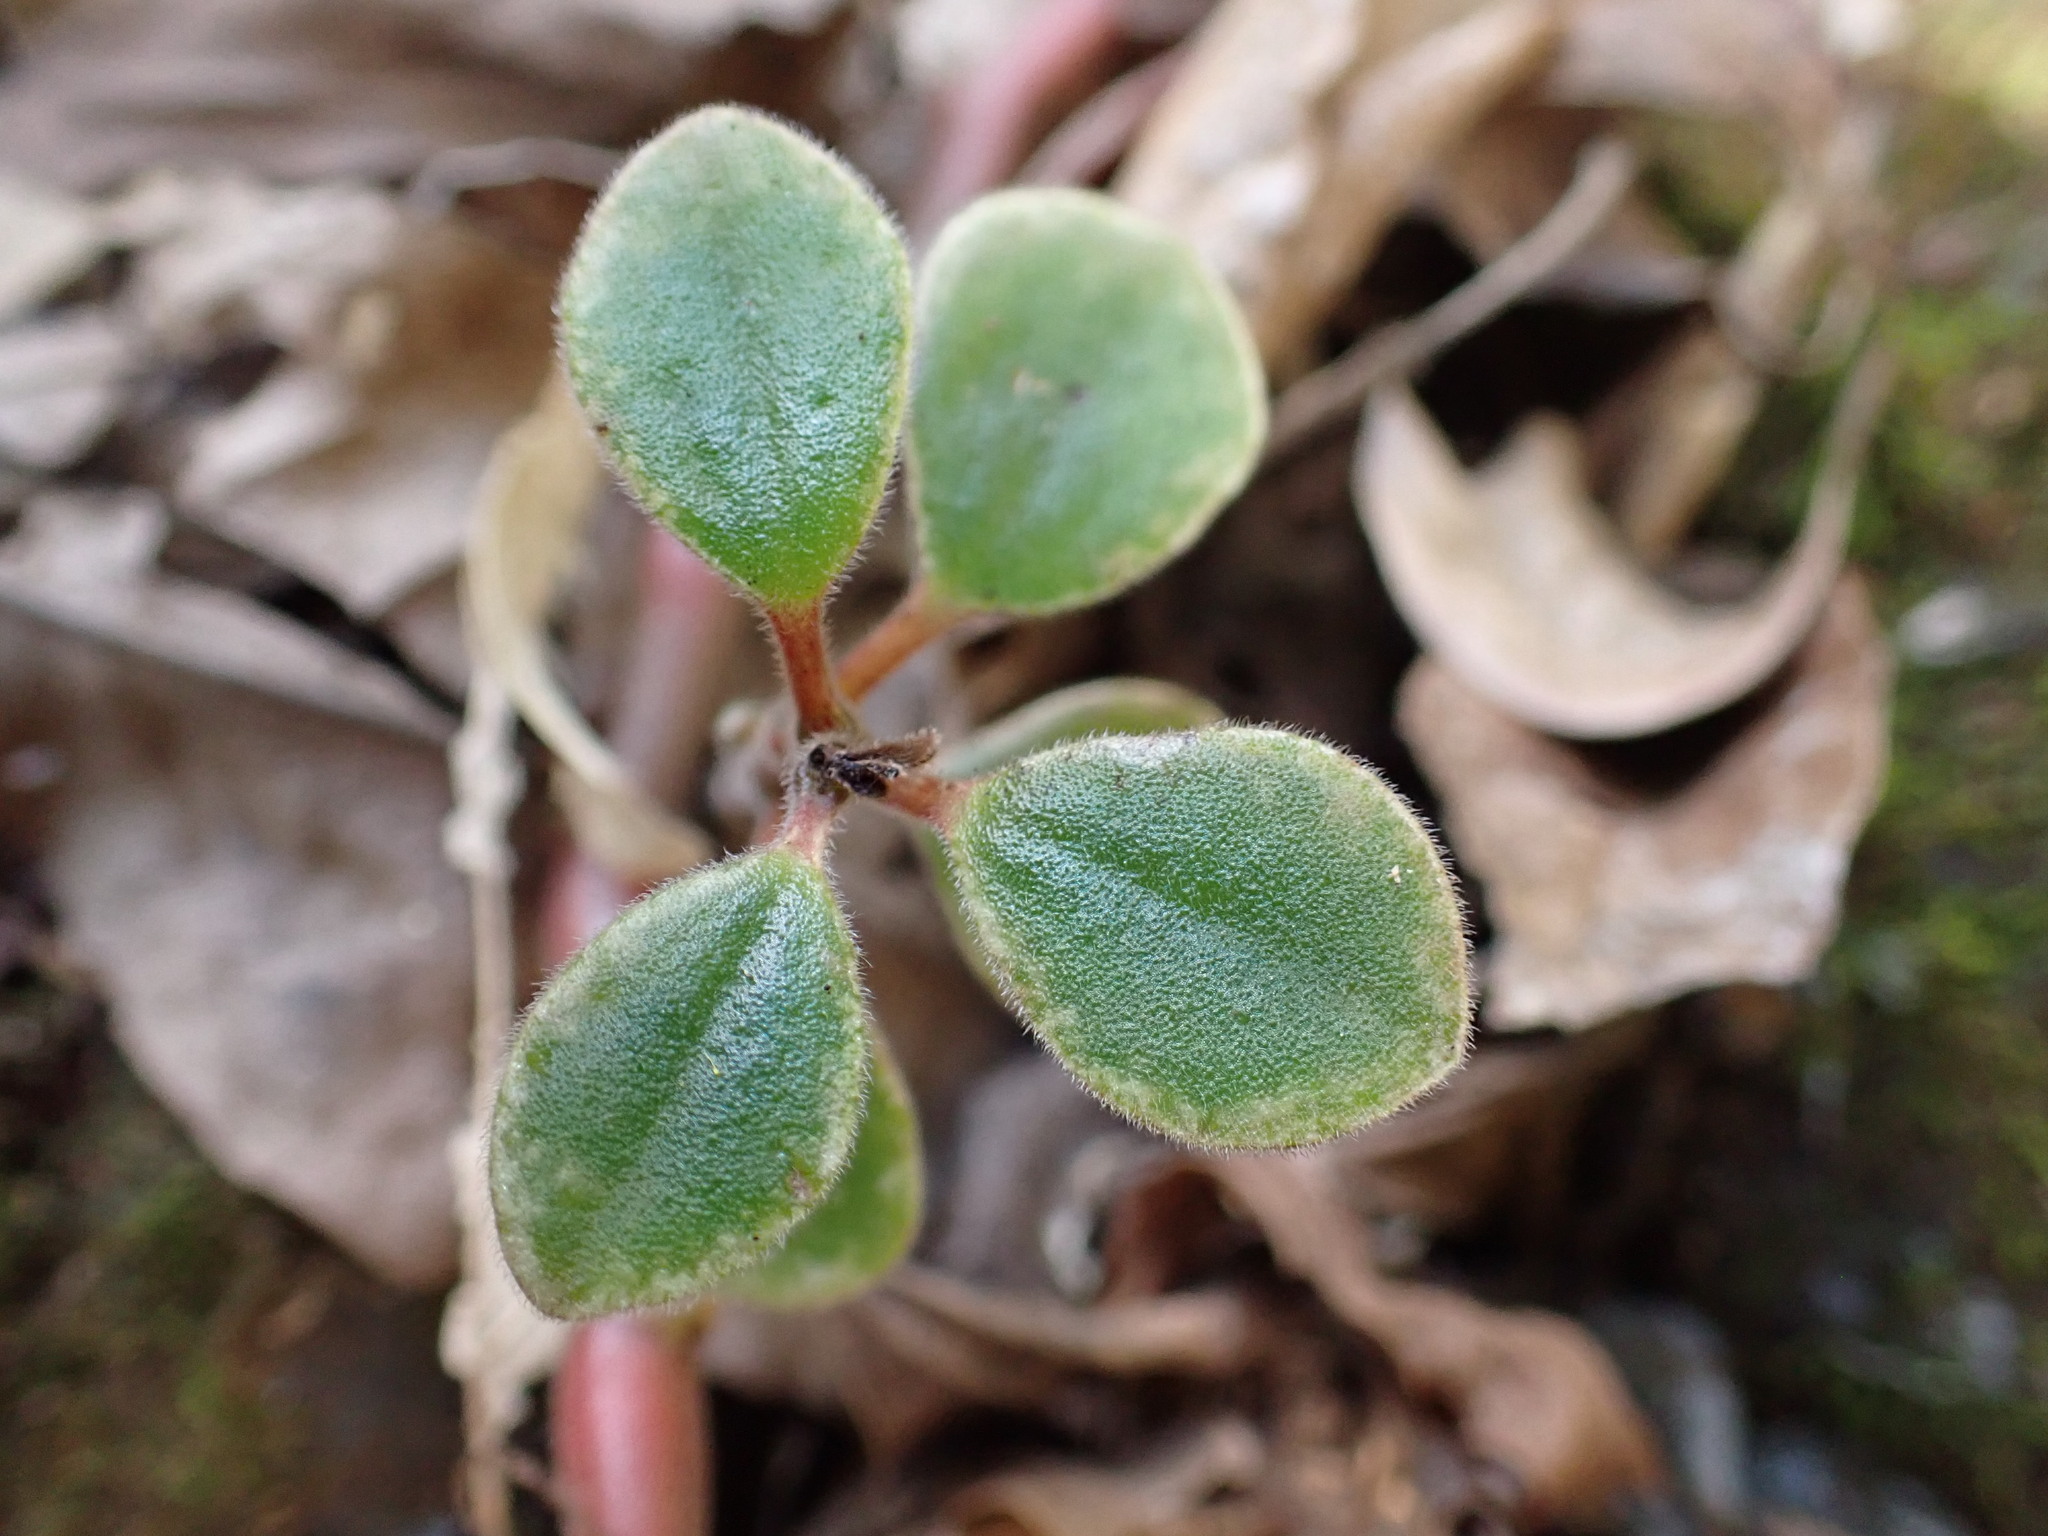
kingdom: Plantae
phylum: Tracheophyta
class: Magnoliopsida
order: Piperales
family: Piperaceae
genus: Peperomia
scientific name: Peperomia leptostachya
